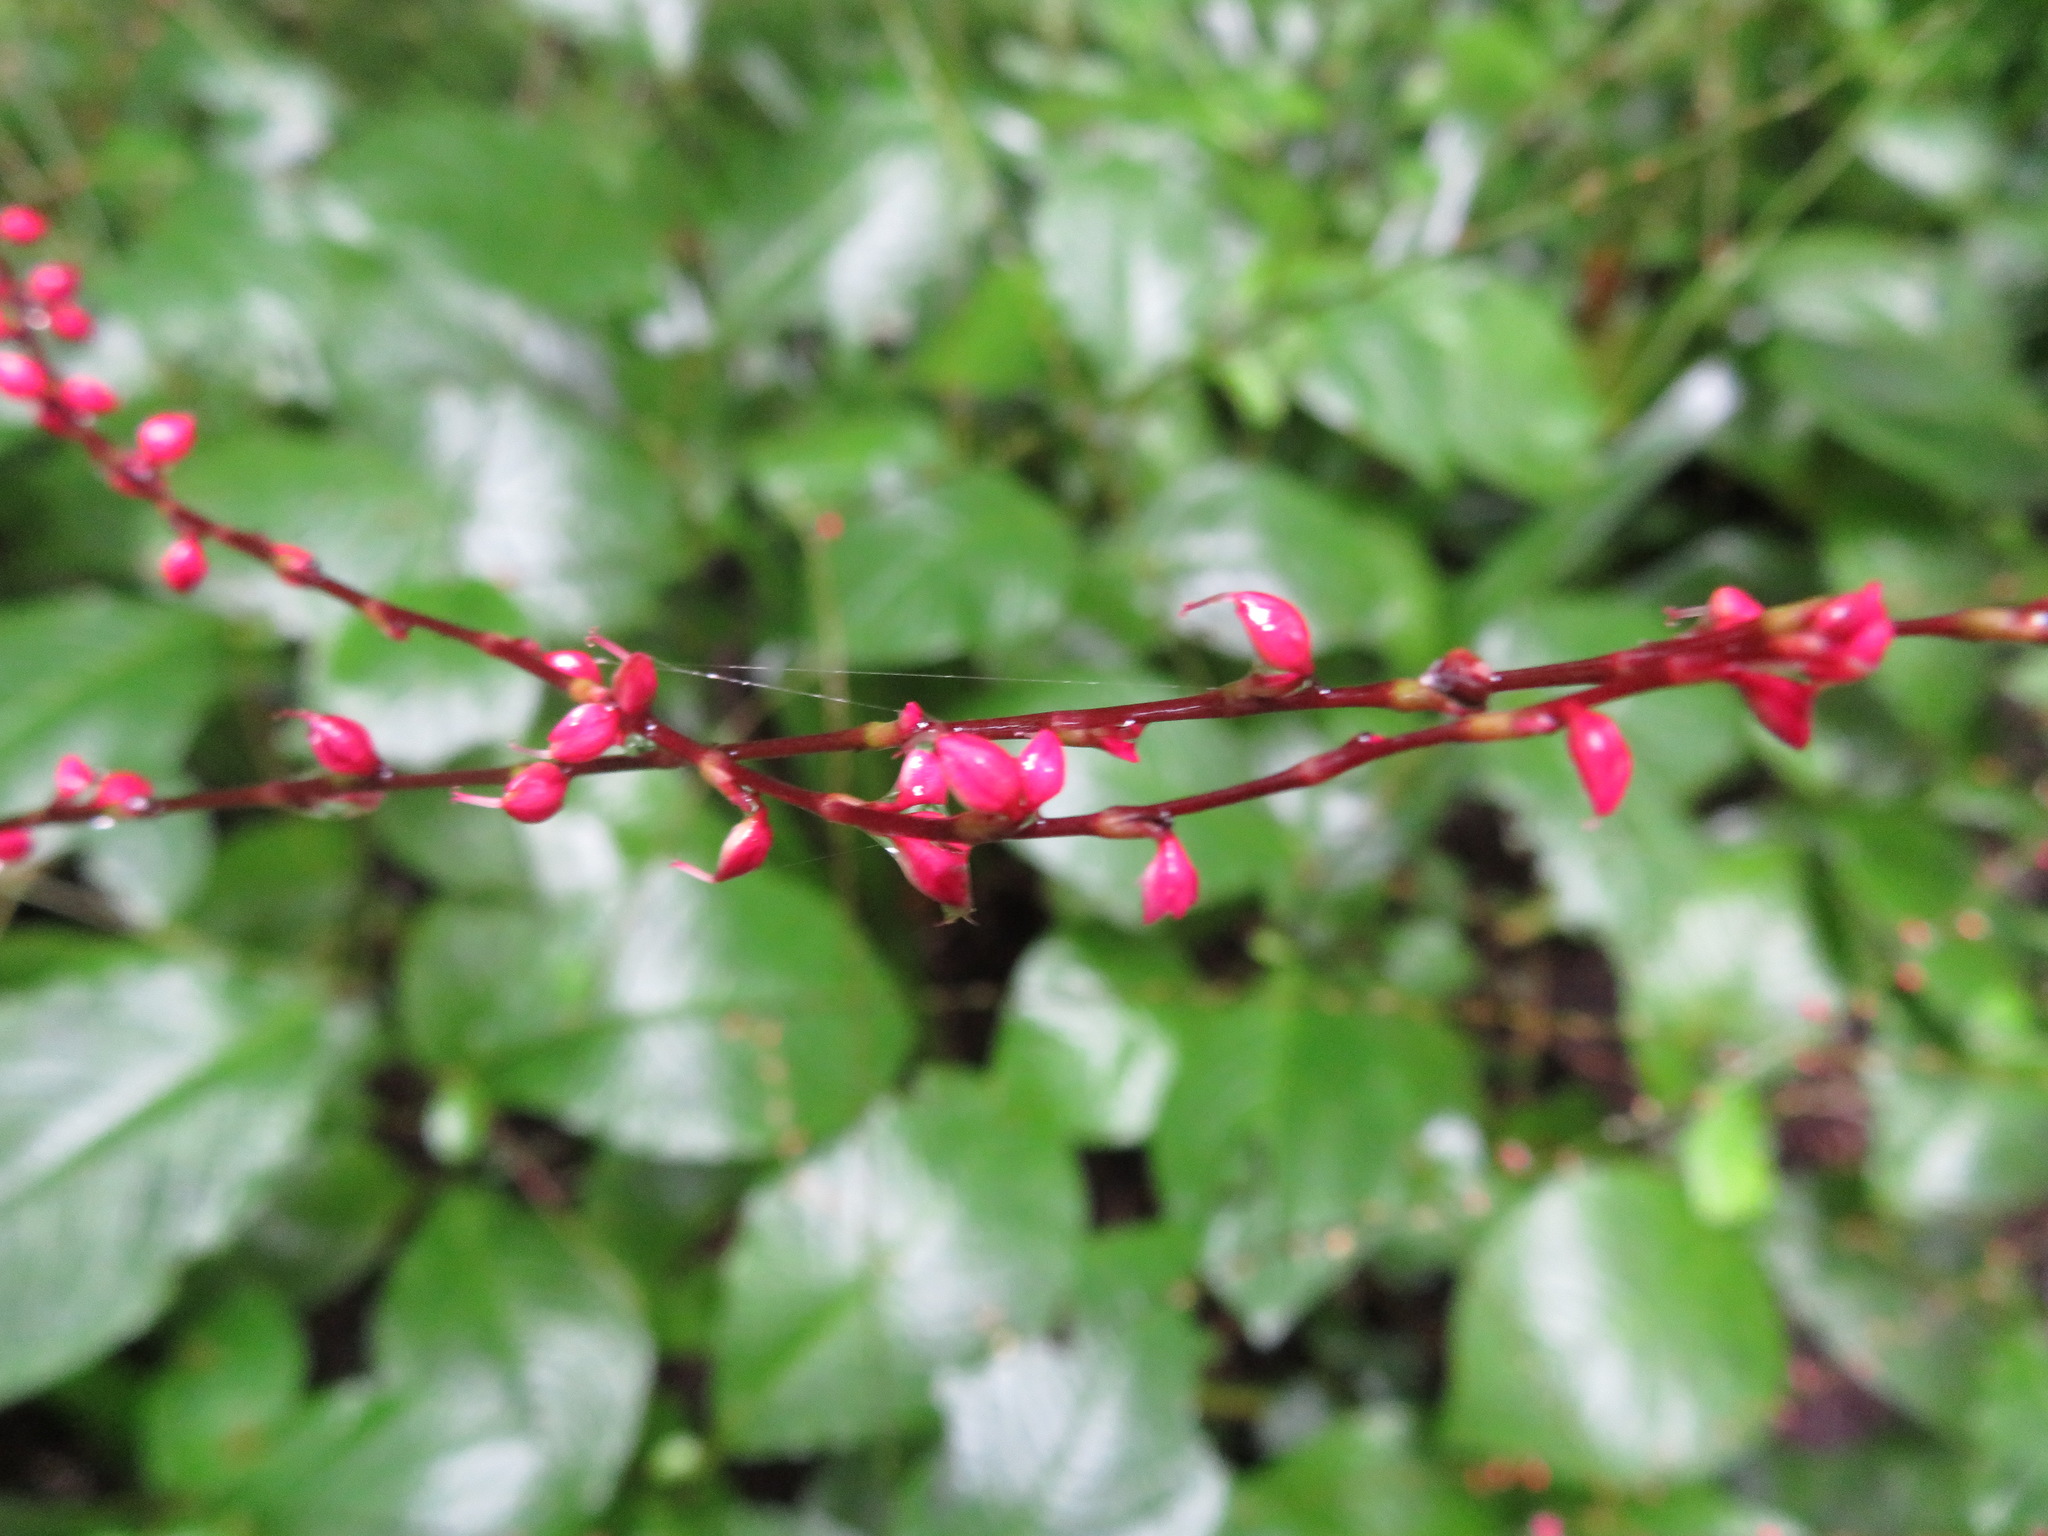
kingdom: Plantae
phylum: Tracheophyta
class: Magnoliopsida
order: Caryophyllales
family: Polygonaceae
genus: Persicaria
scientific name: Persicaria filiformis
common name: Asian jumpseed
